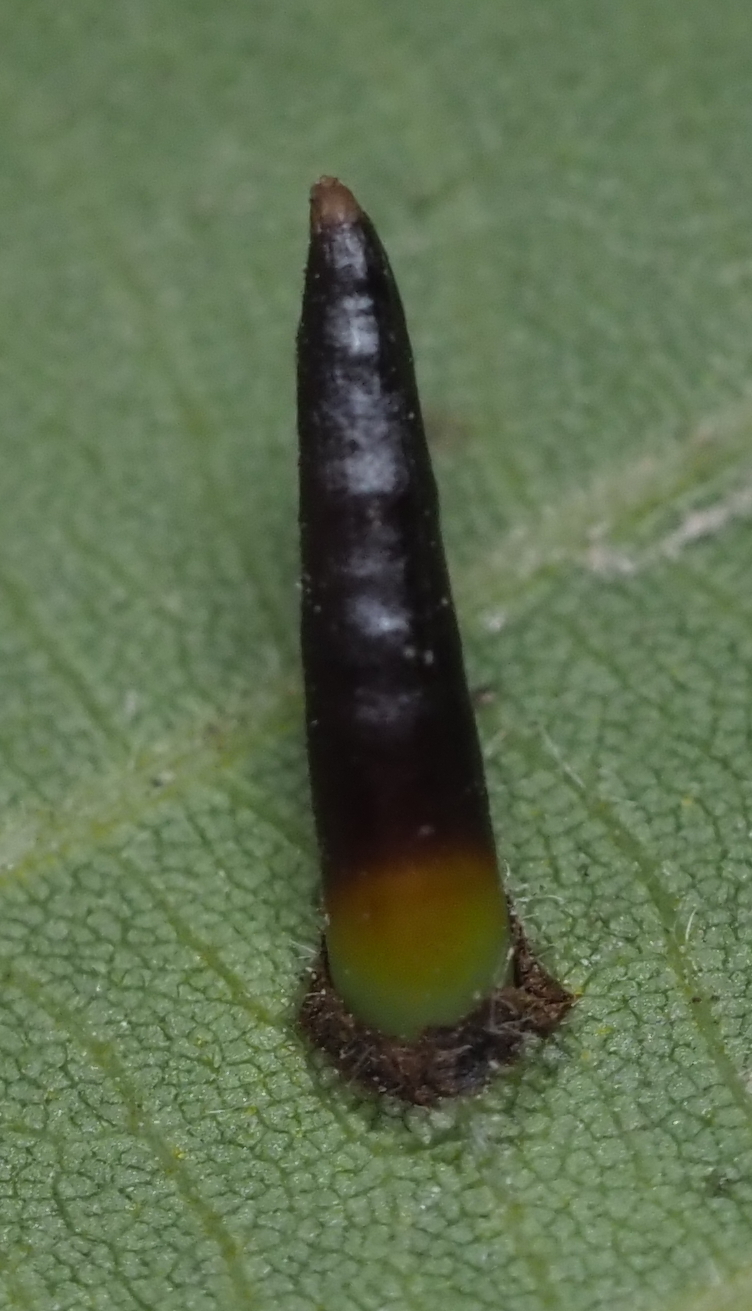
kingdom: Animalia
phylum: Arthropoda
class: Insecta
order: Diptera
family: Cecidomyiidae
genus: Caryomyia
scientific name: Caryomyia subulata
